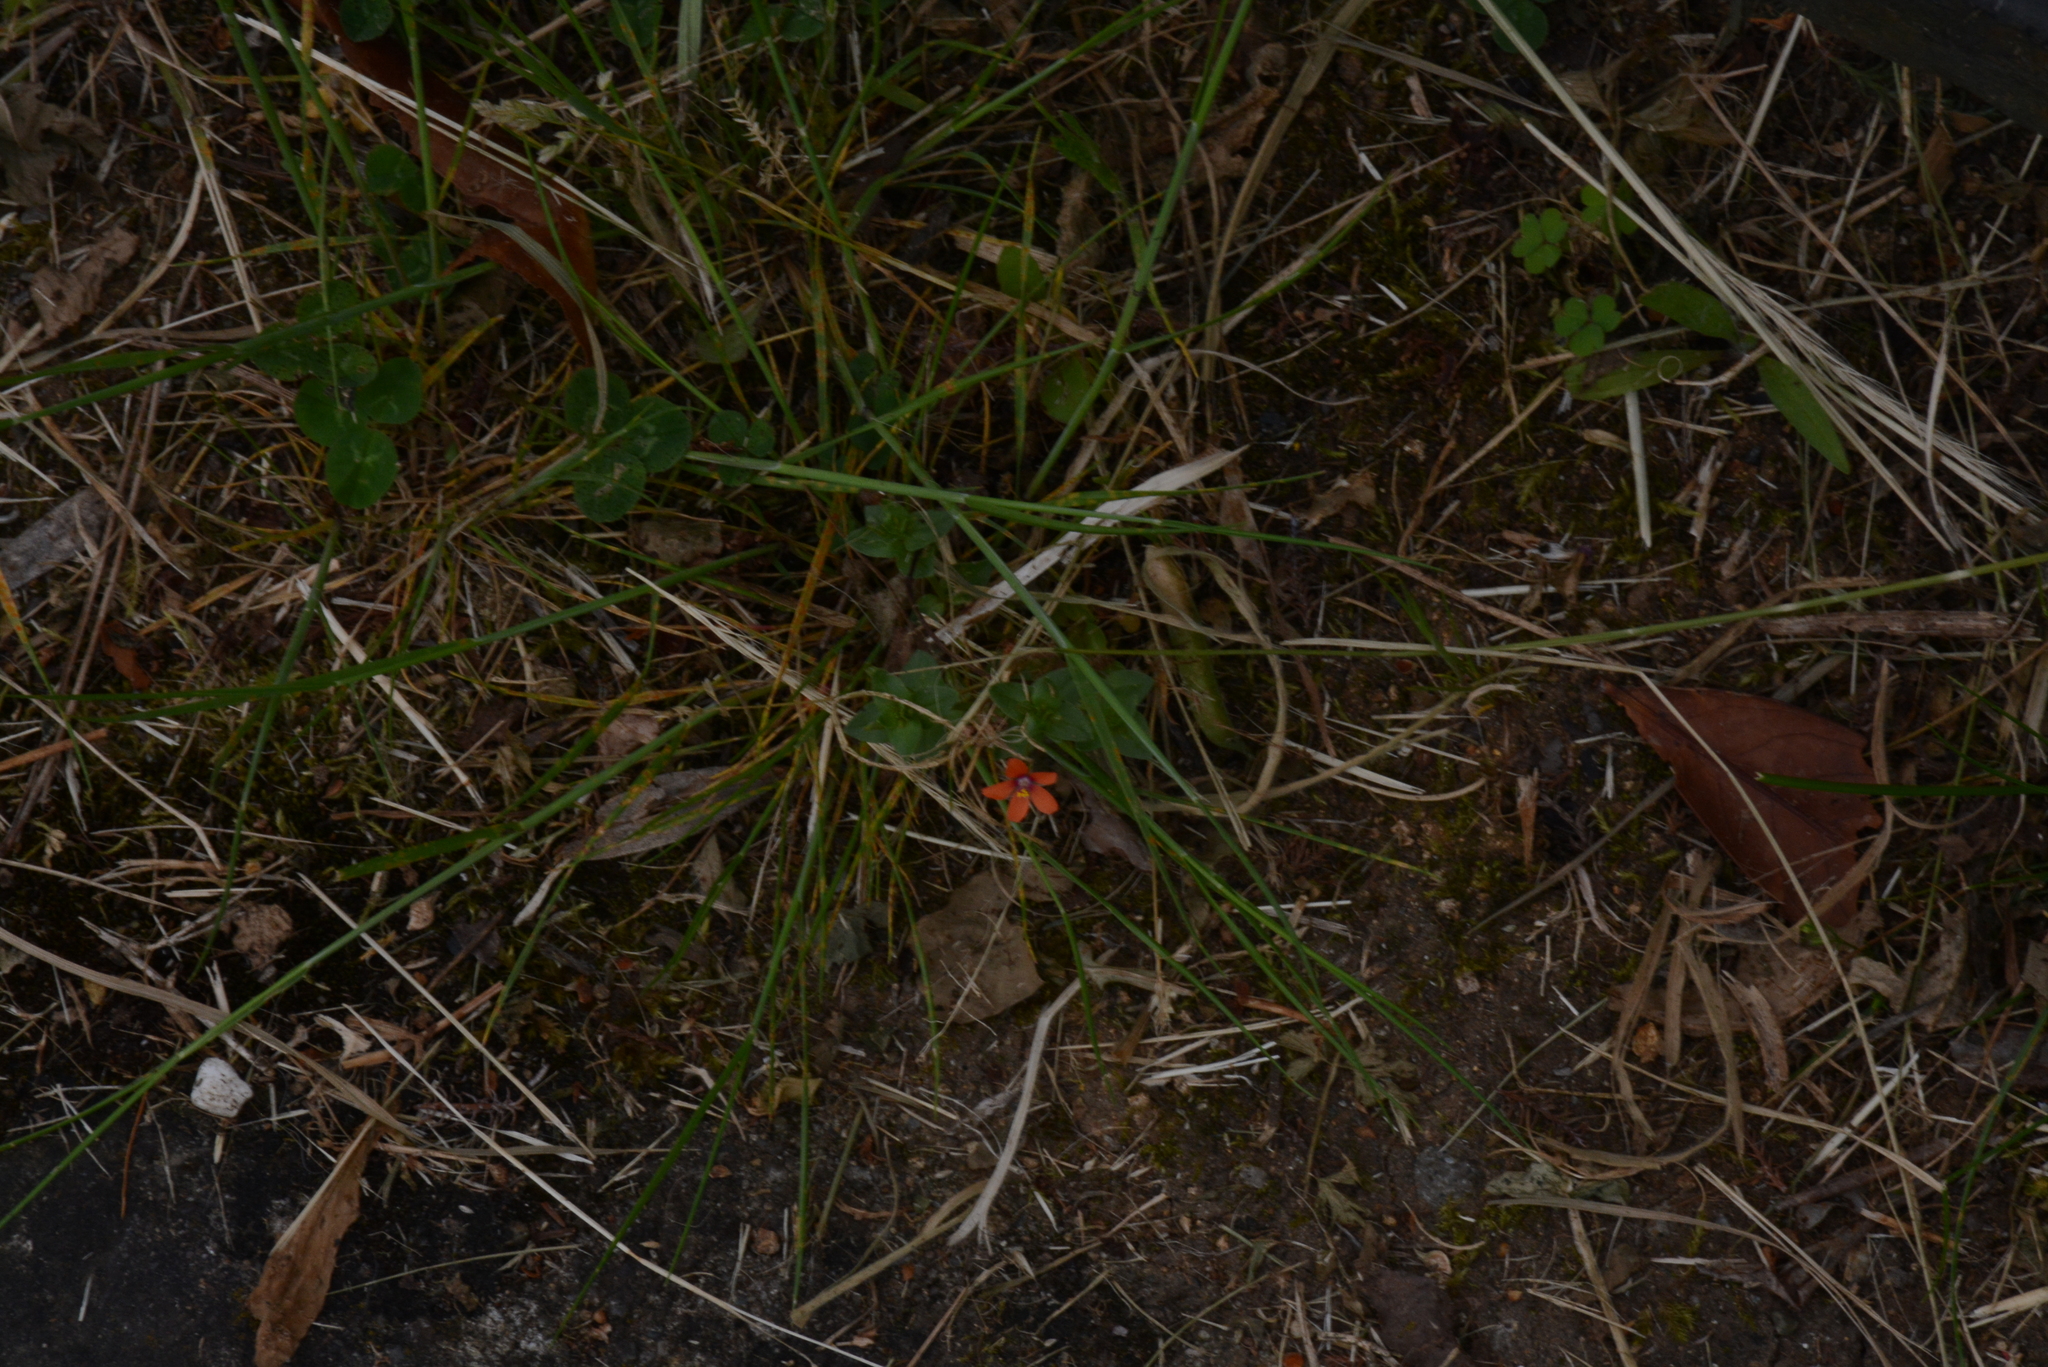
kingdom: Plantae
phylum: Tracheophyta
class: Magnoliopsida
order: Ericales
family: Primulaceae
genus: Lysimachia
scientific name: Lysimachia arvensis
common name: Scarlet pimpernel
